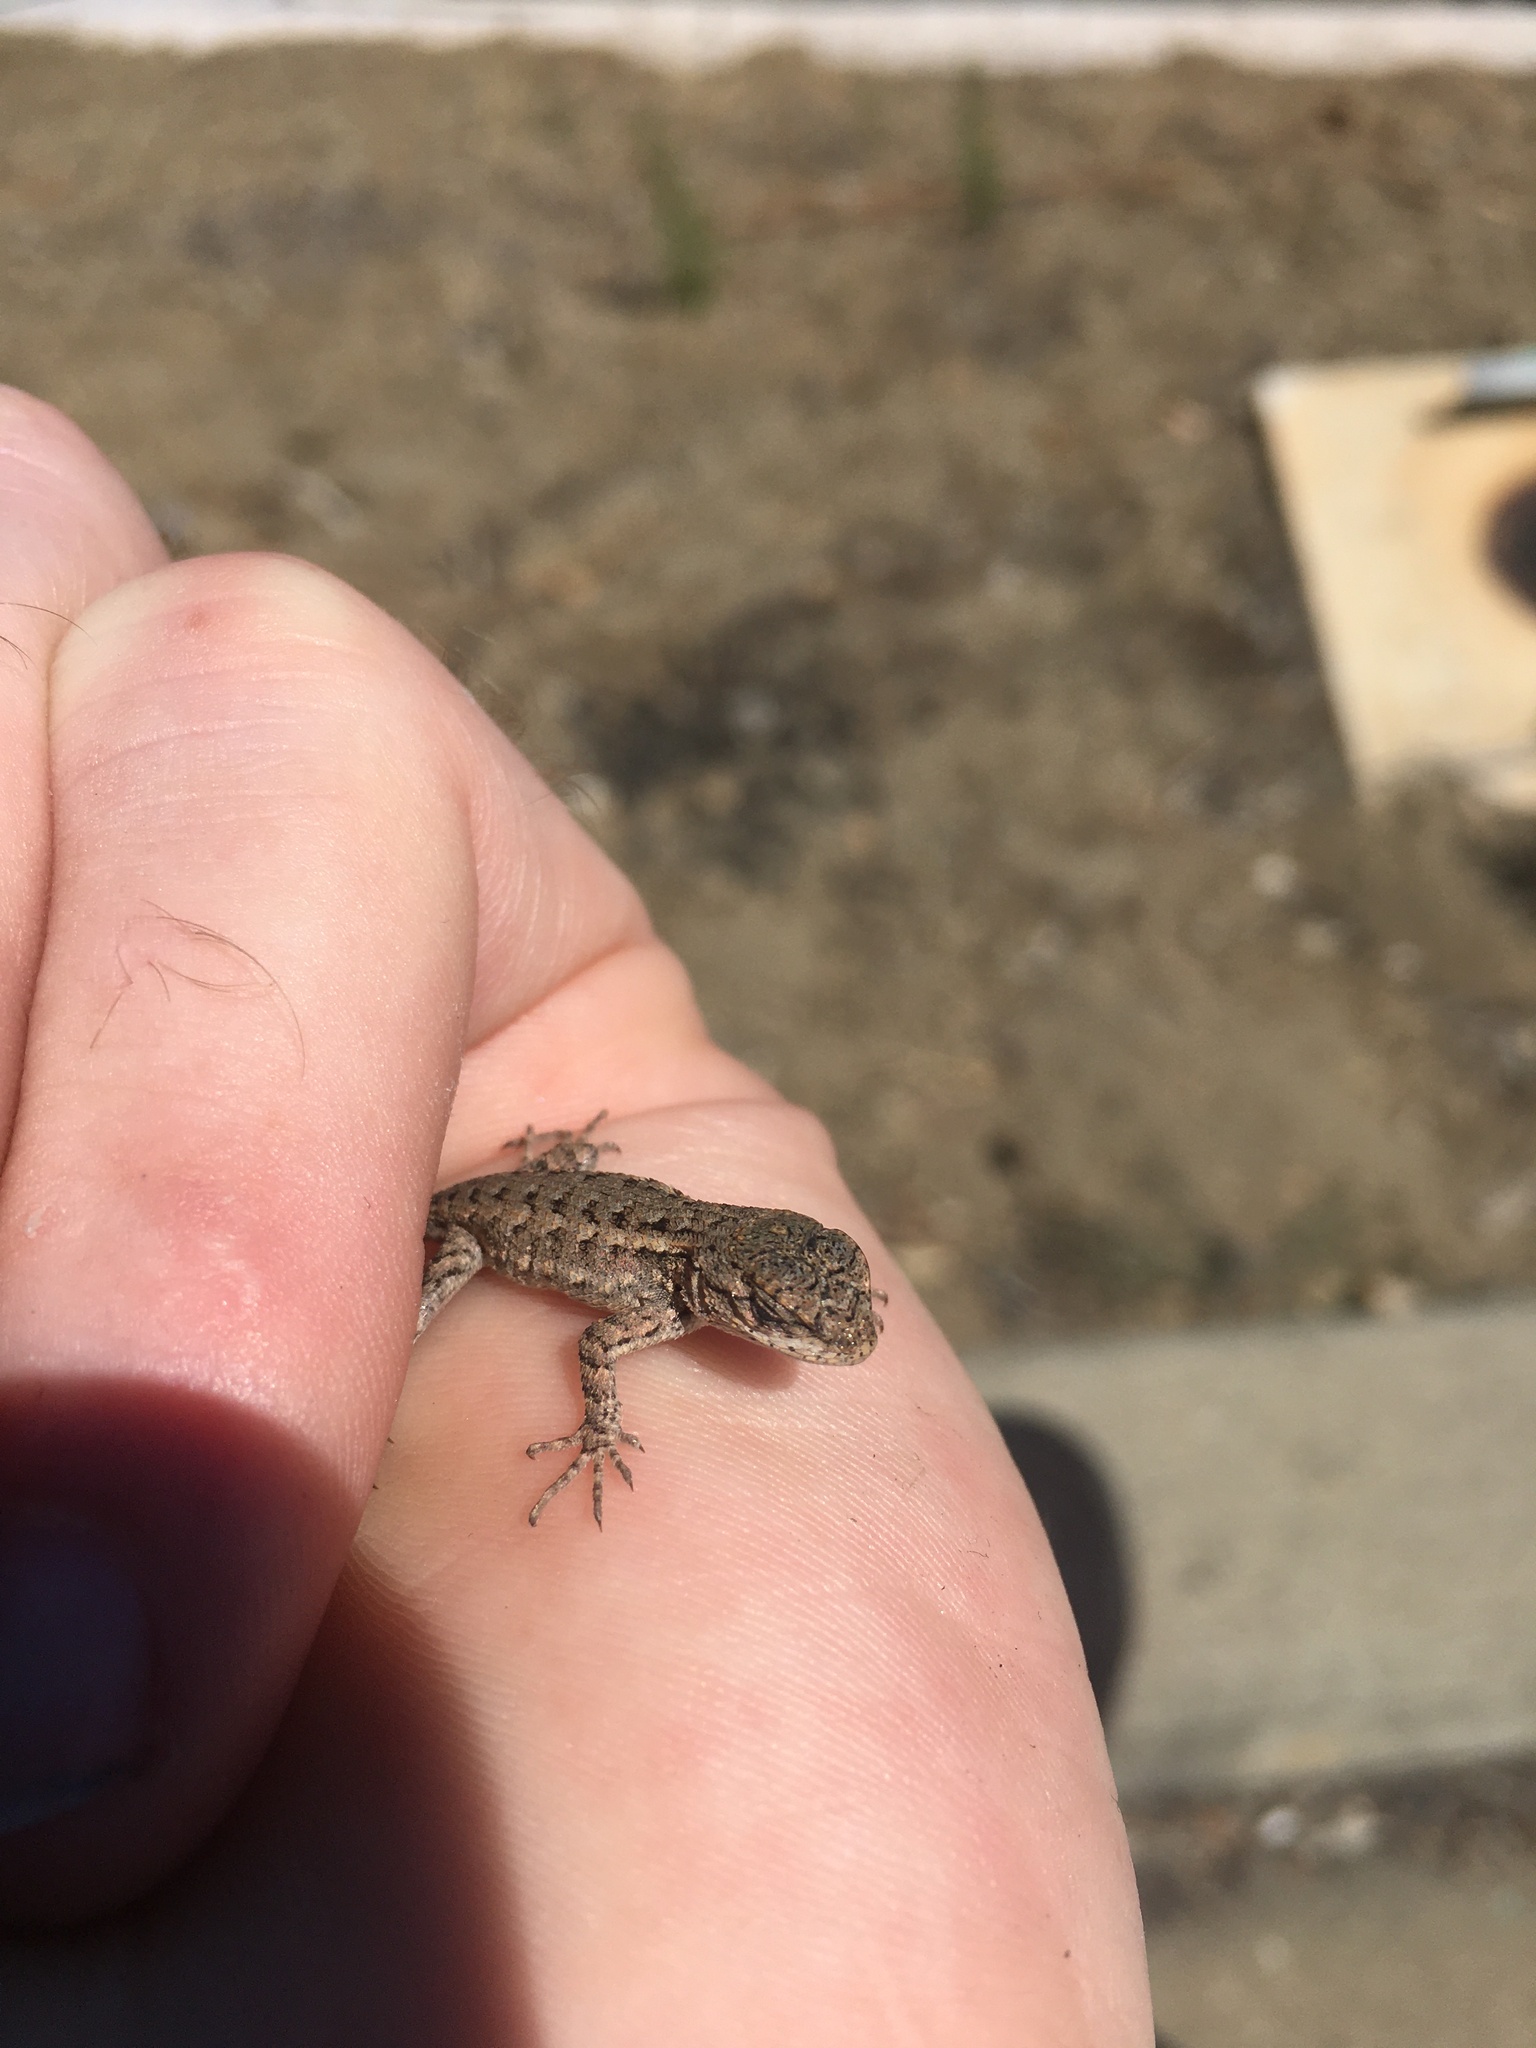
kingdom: Animalia
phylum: Chordata
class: Squamata
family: Phrynosomatidae
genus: Sceloporus
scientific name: Sceloporus occidentalis
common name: Western fence lizard
